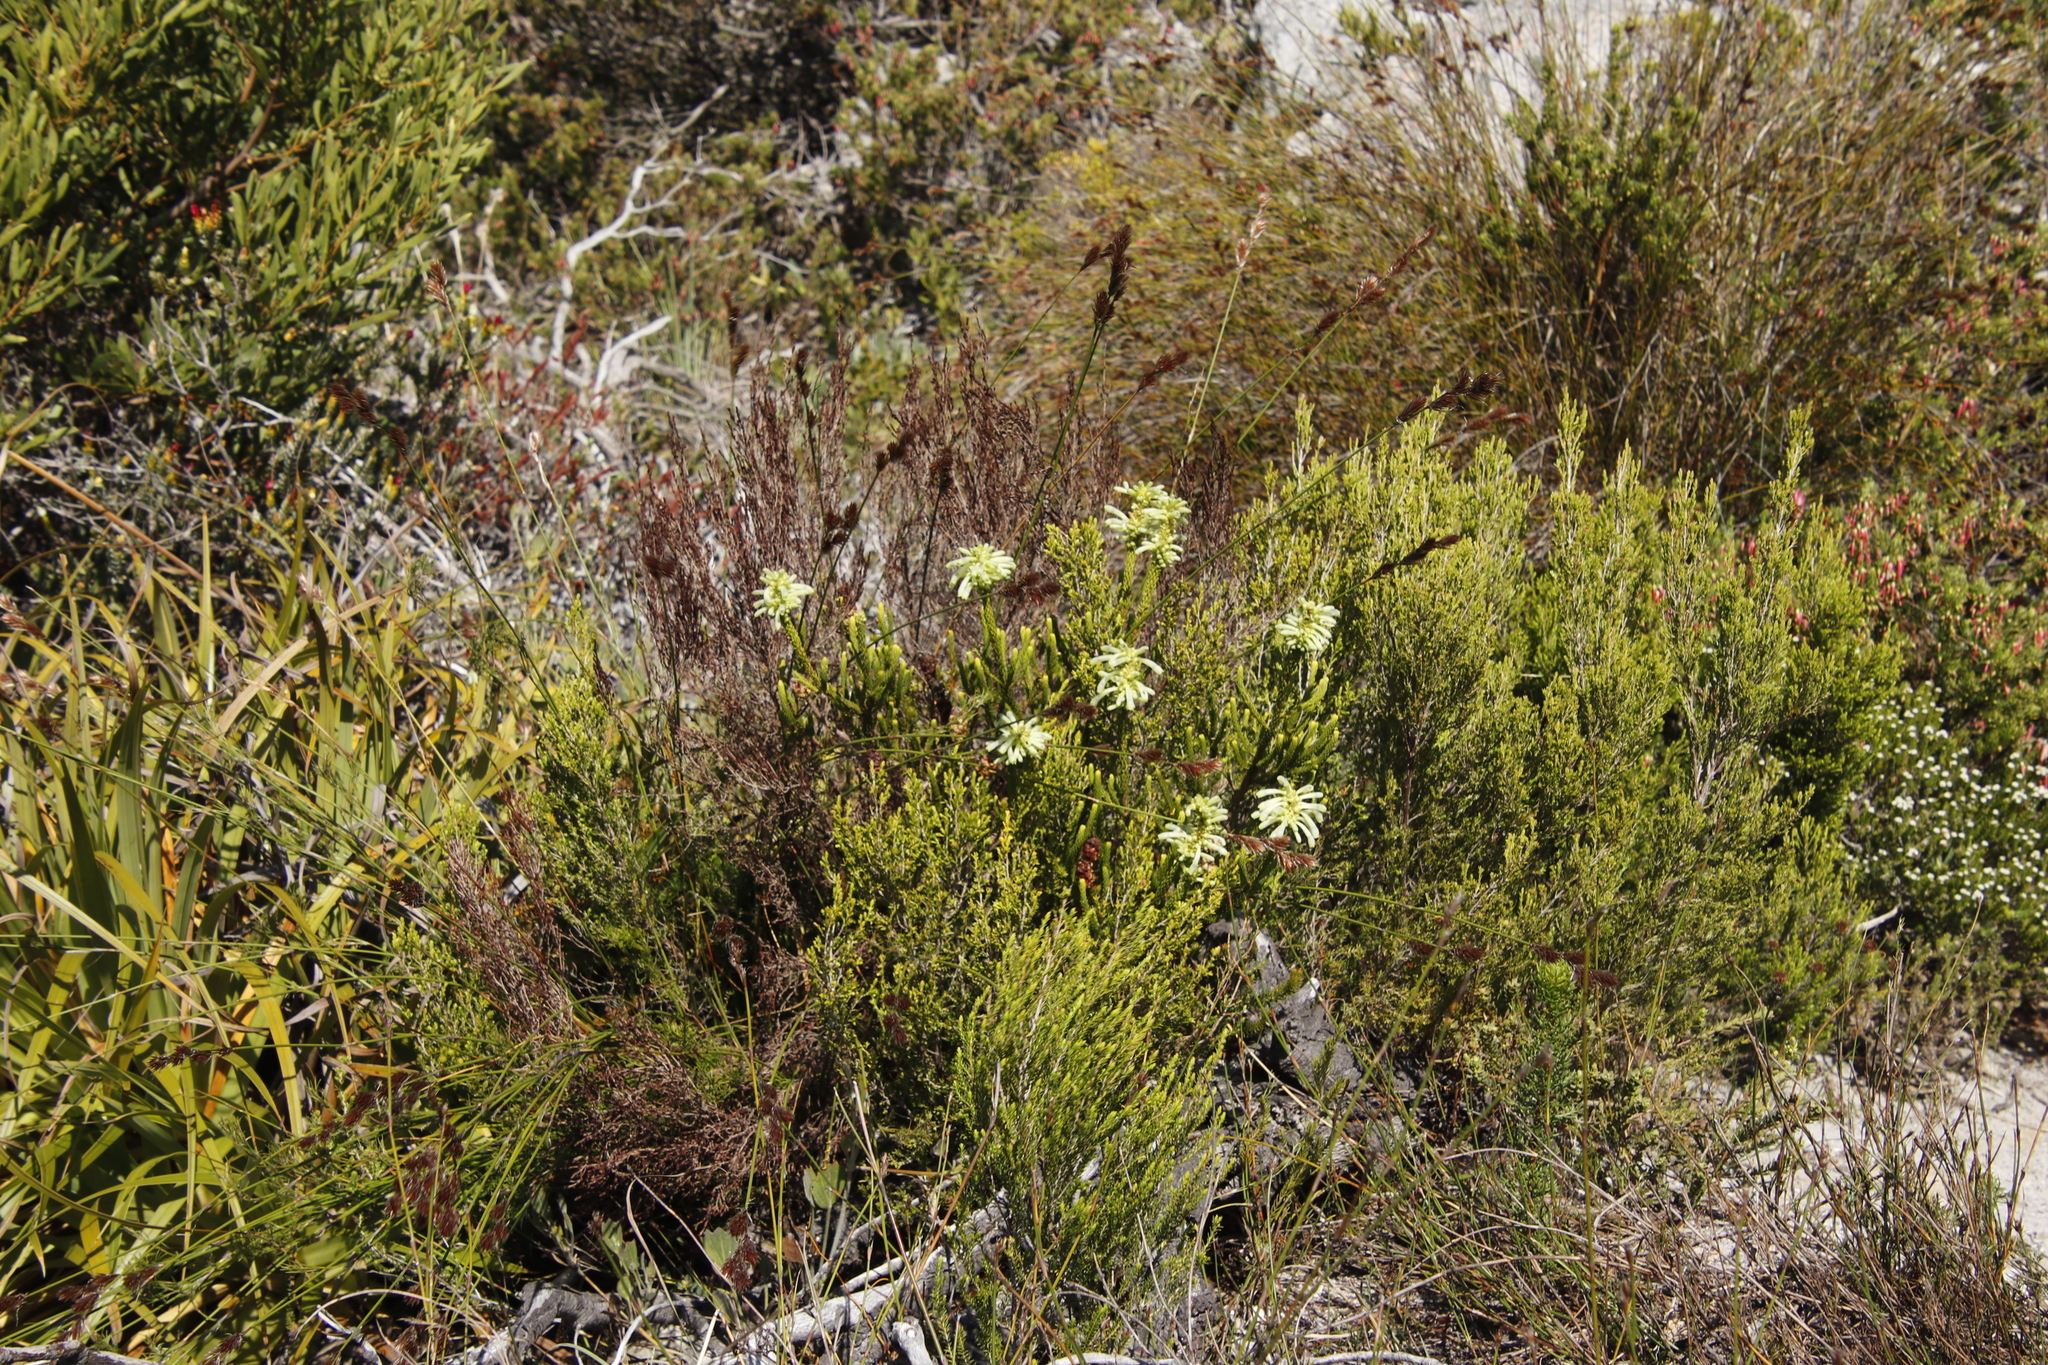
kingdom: Plantae
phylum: Tracheophyta
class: Magnoliopsida
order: Ericales
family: Ericaceae
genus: Erica
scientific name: Erica sessiliflora
